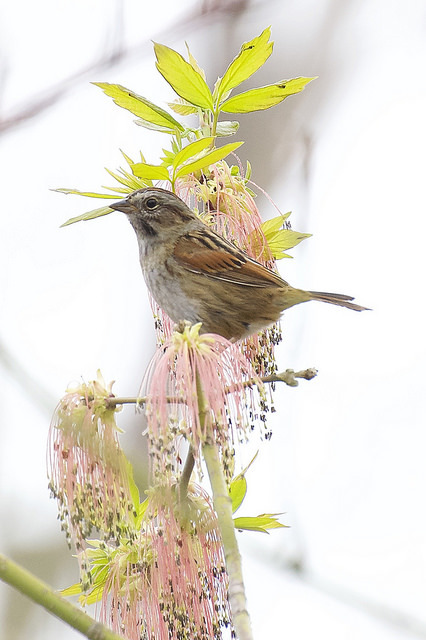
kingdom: Animalia
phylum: Chordata
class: Aves
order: Passeriformes
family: Passerellidae
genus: Melospiza
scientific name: Melospiza georgiana
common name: Swamp sparrow
